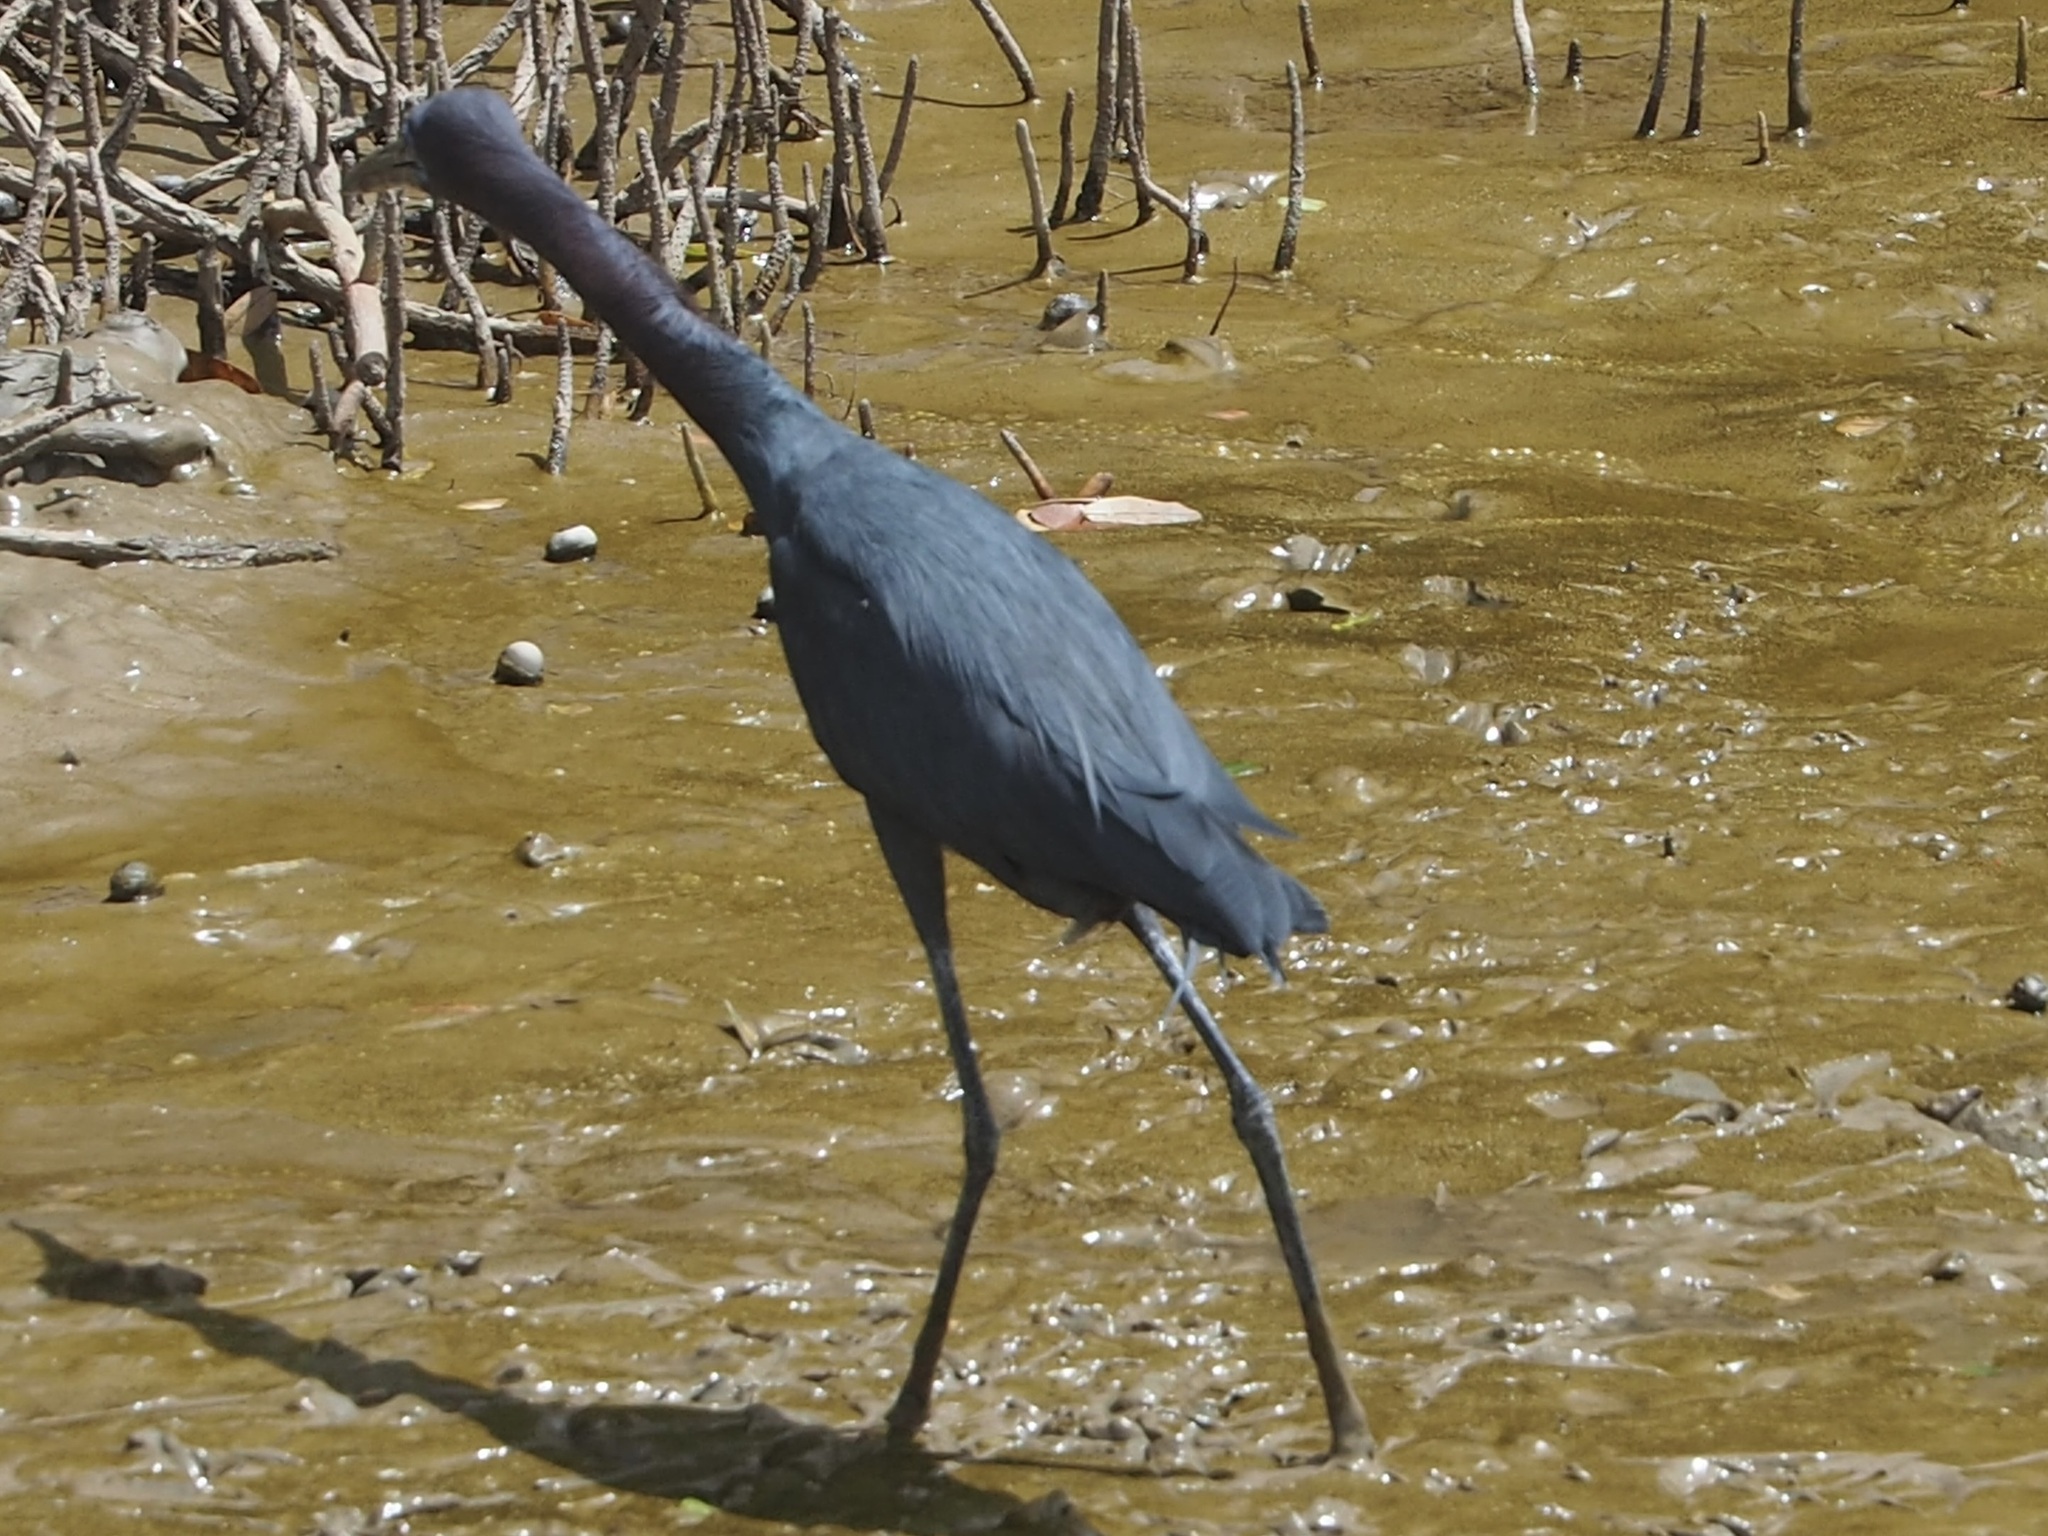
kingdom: Animalia
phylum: Chordata
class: Aves
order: Pelecaniformes
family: Ardeidae
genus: Egretta
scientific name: Egretta caerulea
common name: Little blue heron
